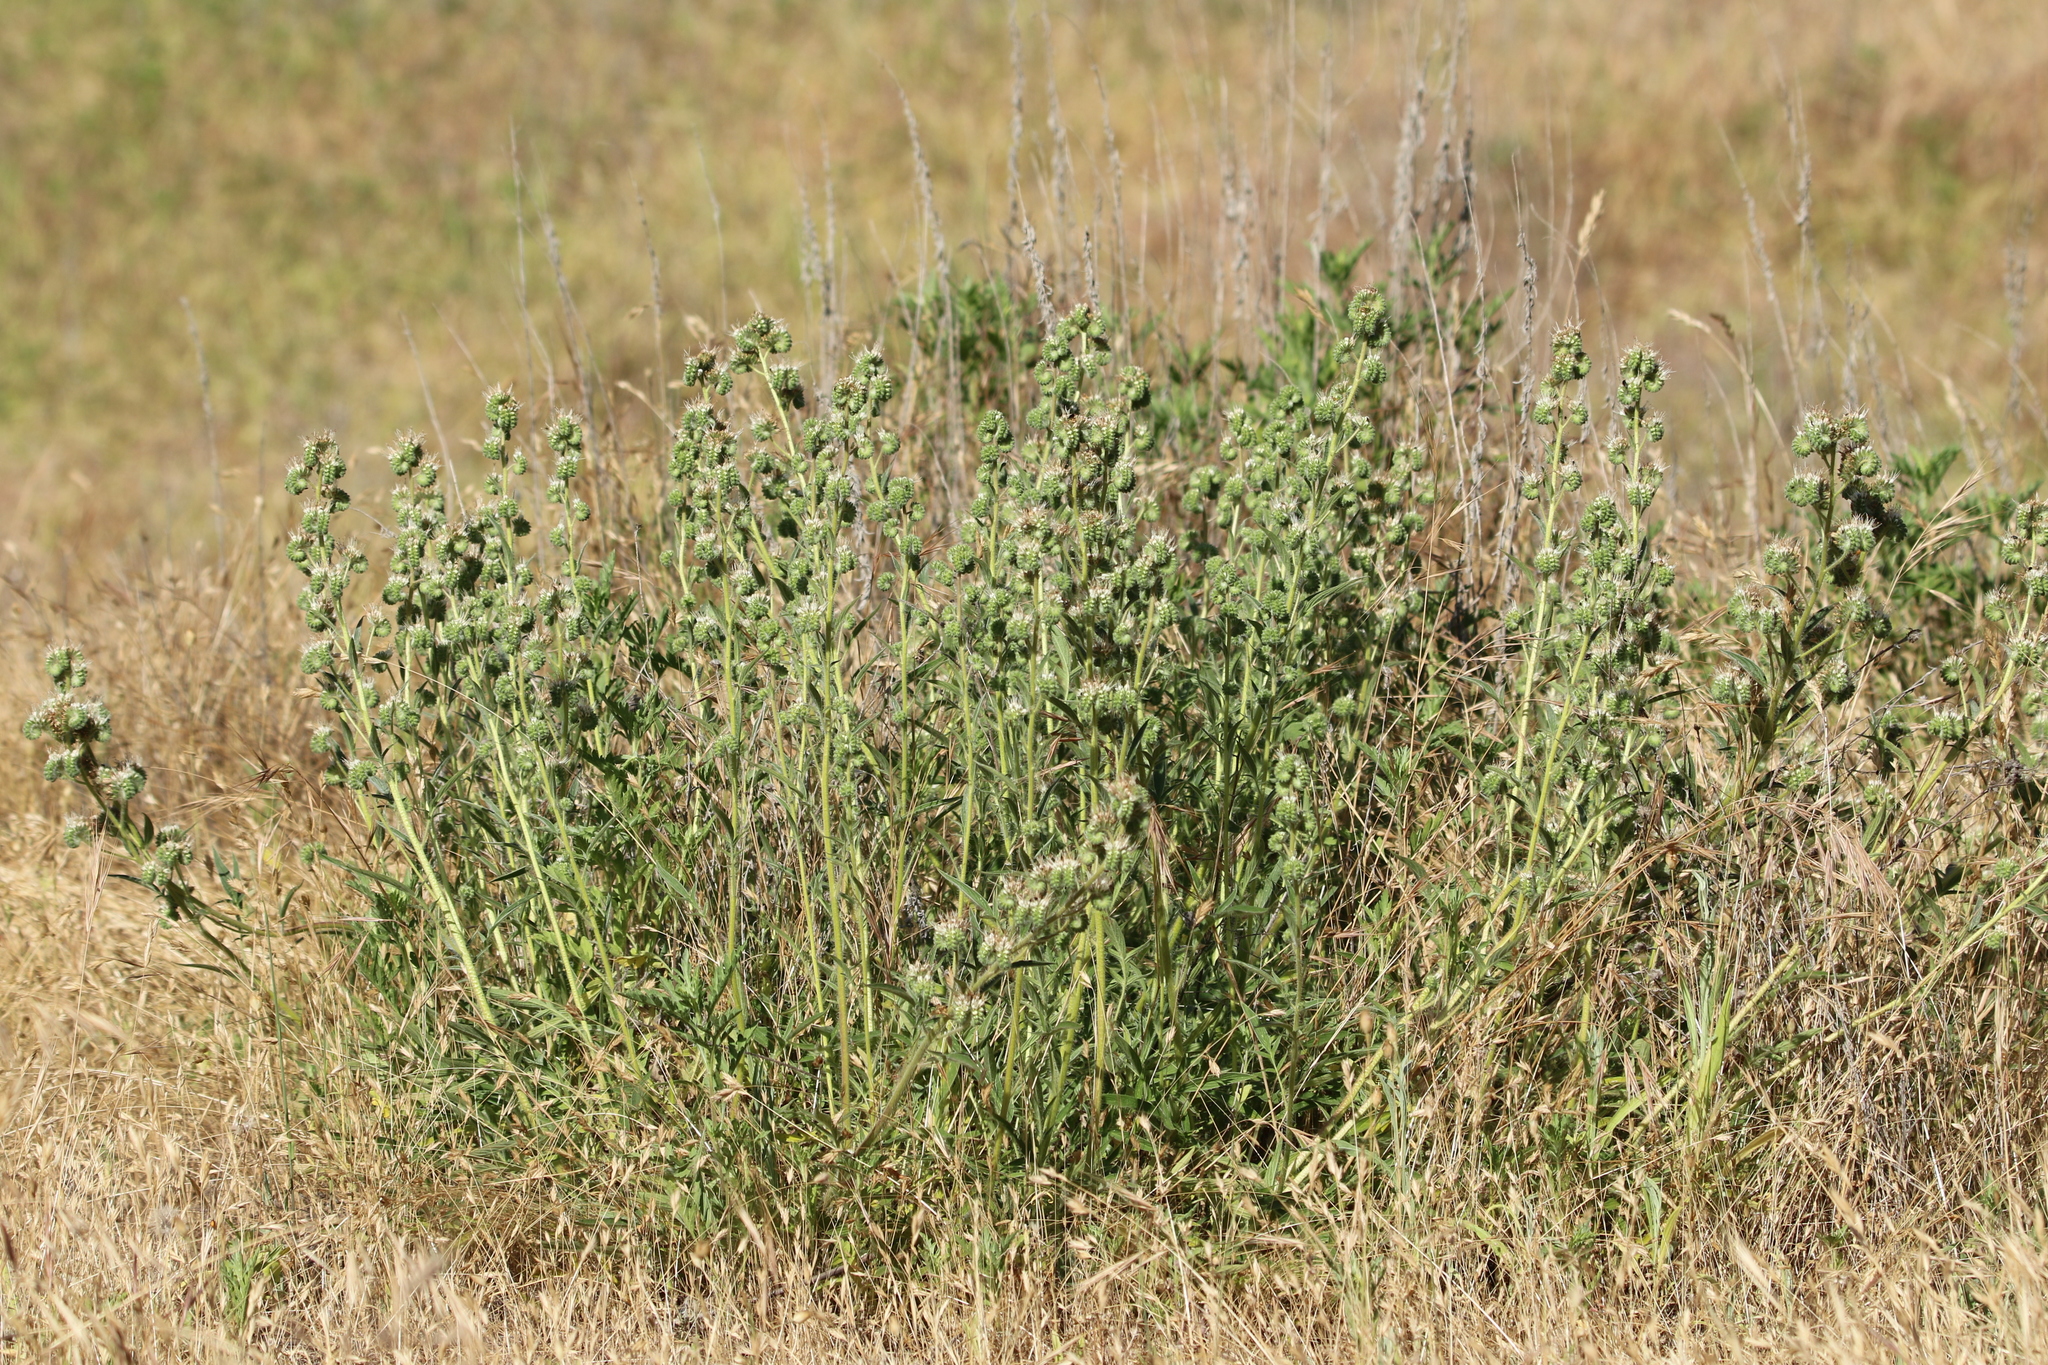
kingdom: Plantae
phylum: Tracheophyta
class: Magnoliopsida
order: Boraginales
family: Hydrophyllaceae
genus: Phacelia
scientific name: Phacelia imbricata
